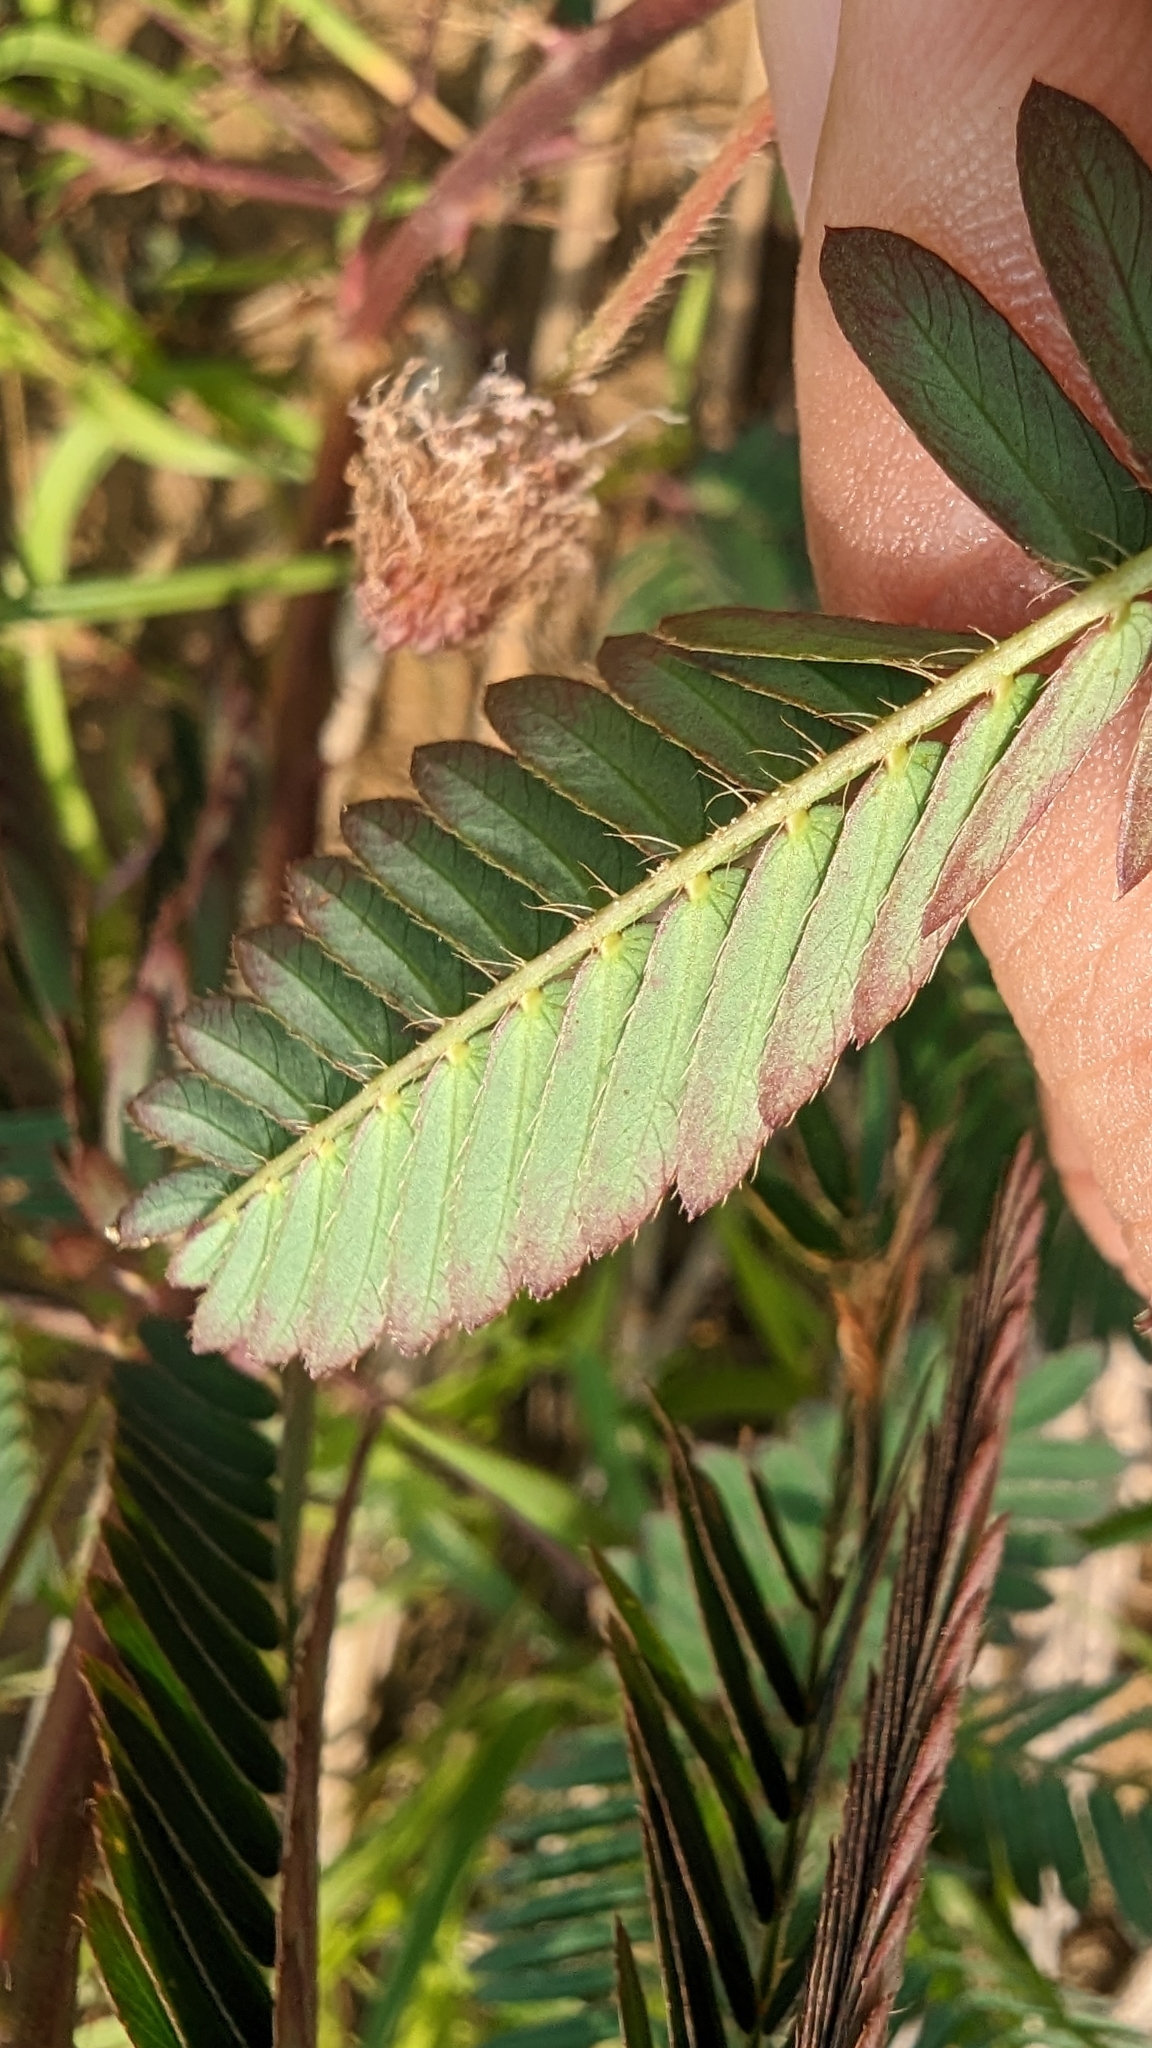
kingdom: Plantae
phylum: Tracheophyta
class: Magnoliopsida
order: Fabales
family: Fabaceae
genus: Mimosa
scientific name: Mimosa pudica
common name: Sensitive plant
